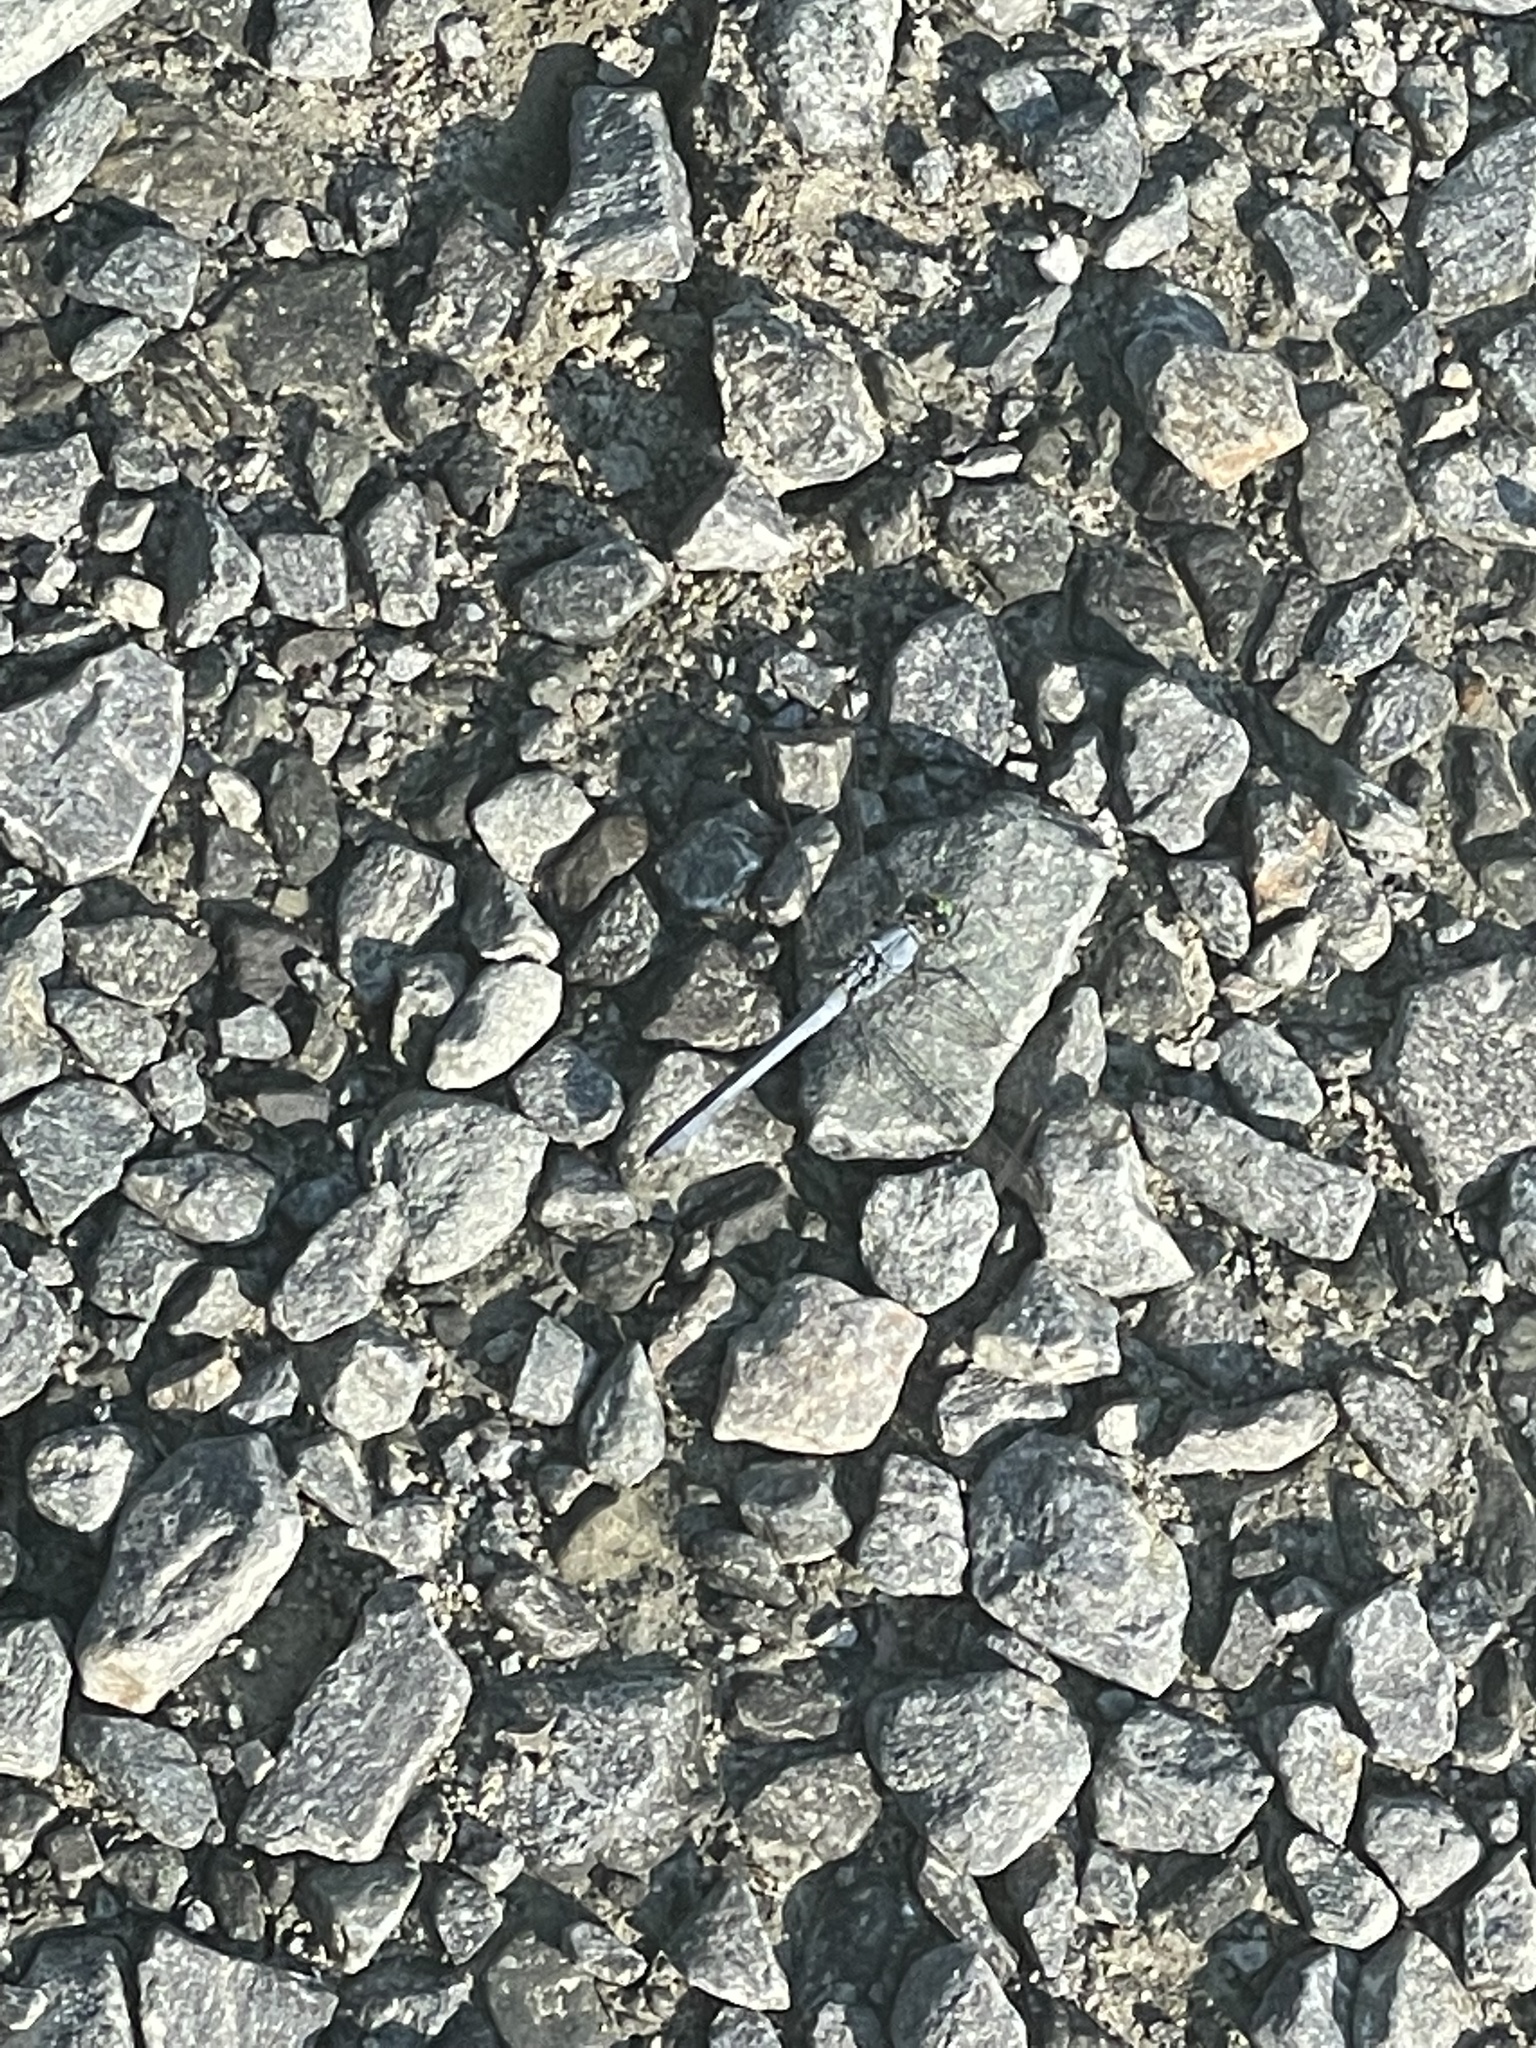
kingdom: Animalia
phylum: Arthropoda
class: Insecta
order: Odonata
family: Libellulidae
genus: Erythemis
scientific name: Erythemis simplicicollis
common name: Eastern pondhawk
